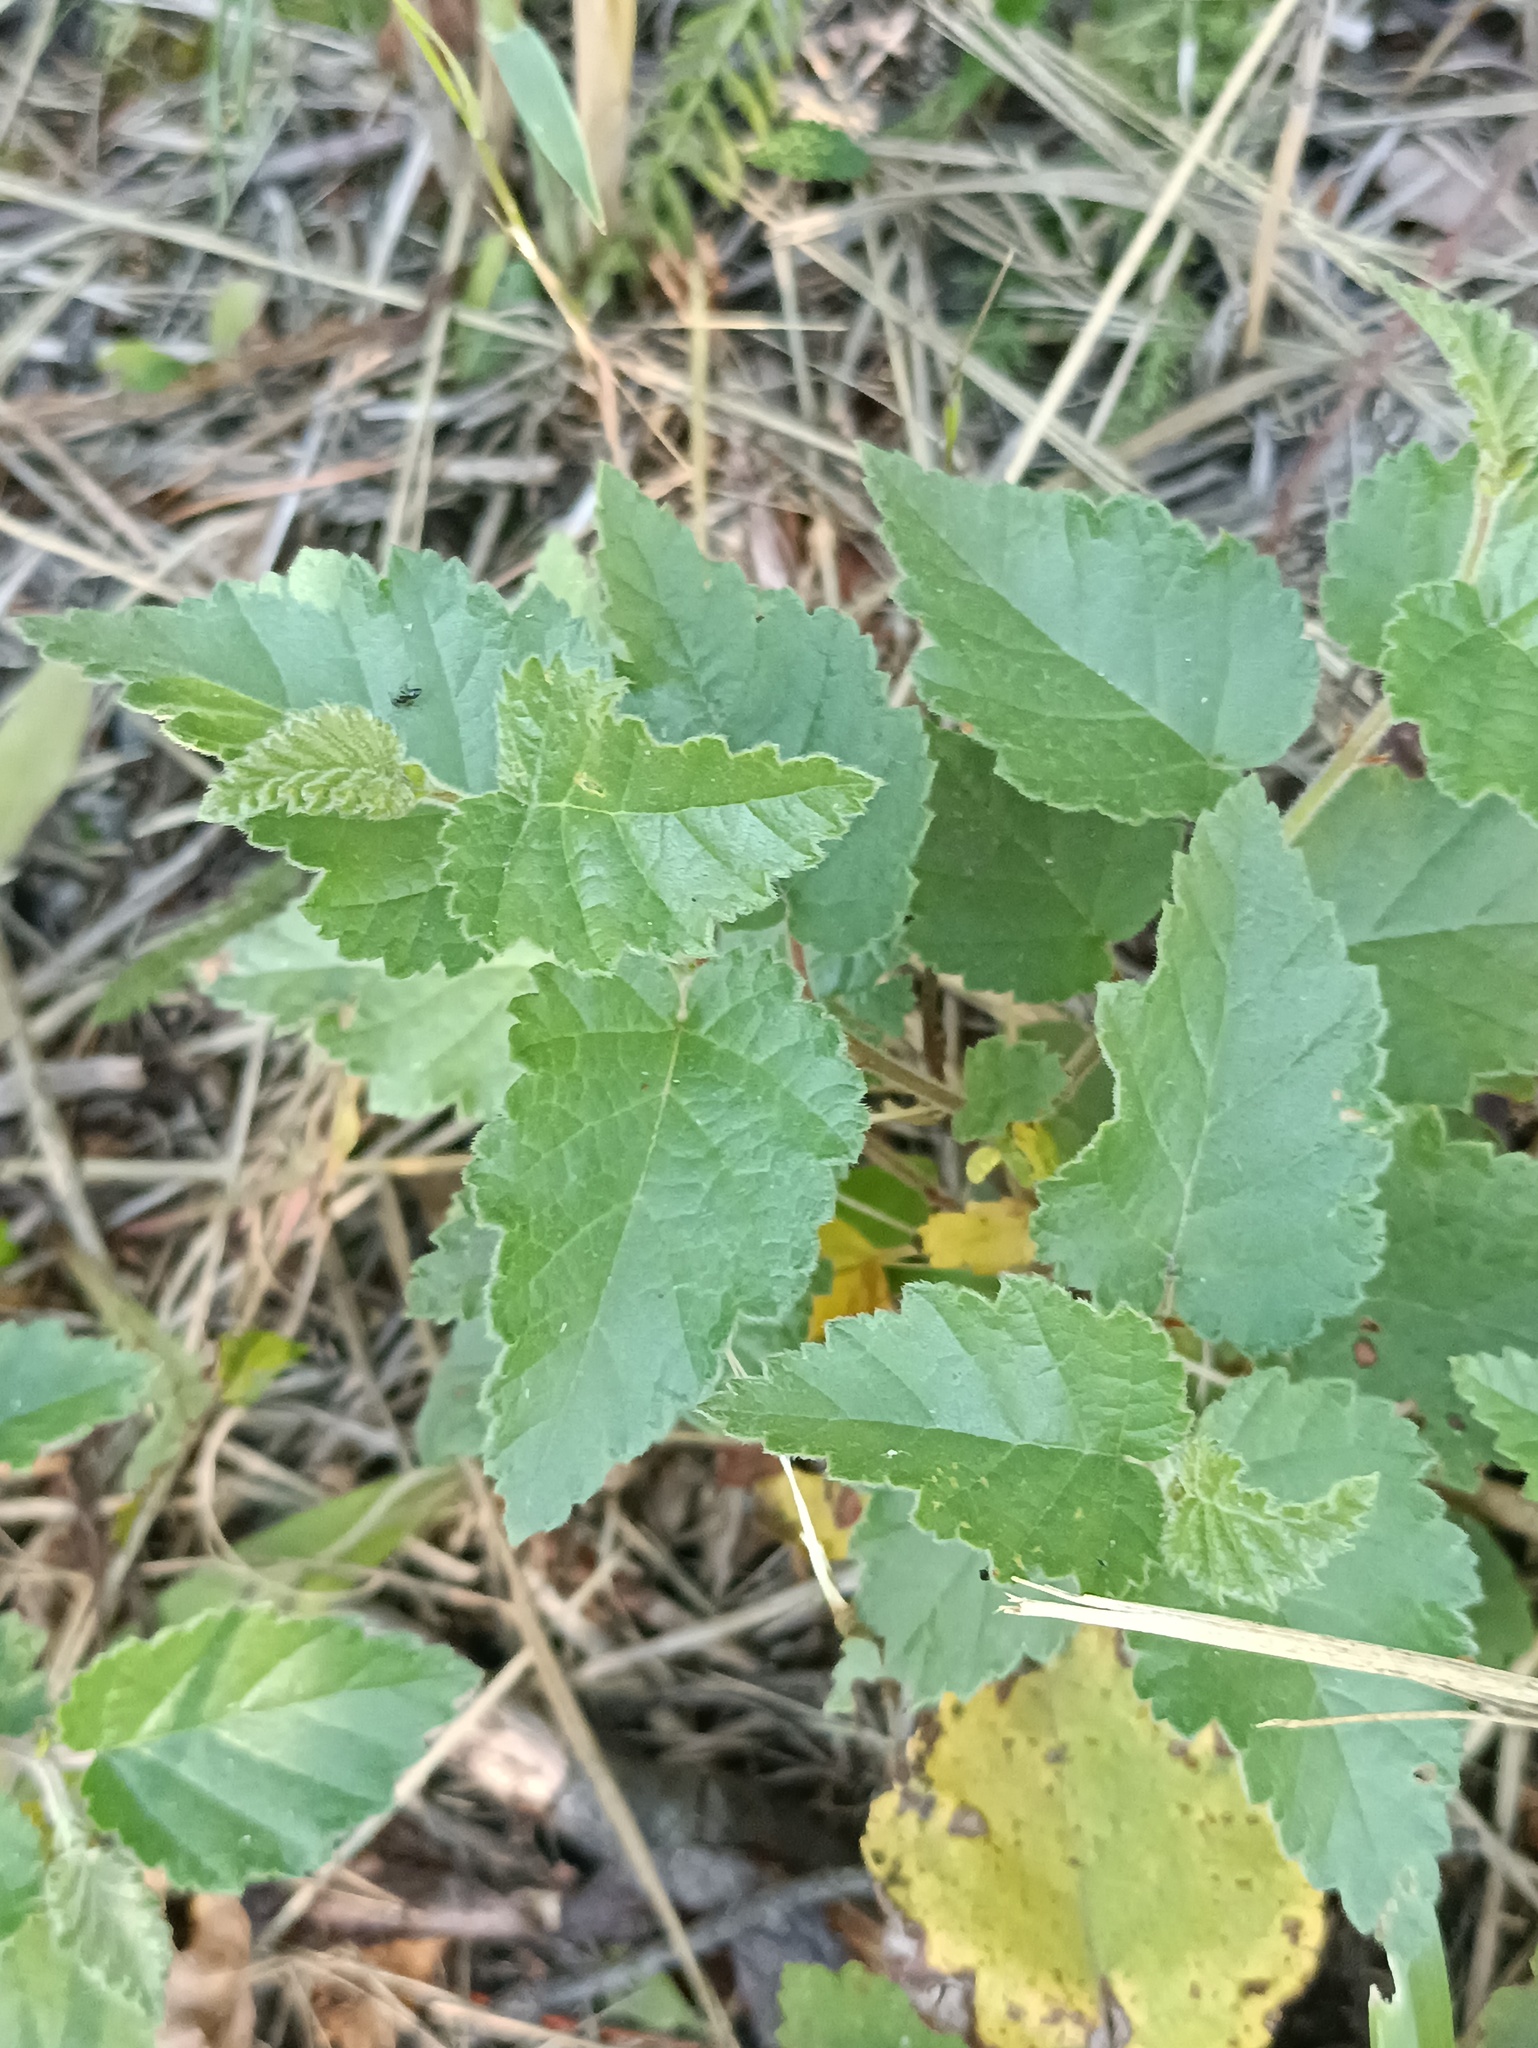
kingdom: Plantae
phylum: Tracheophyta
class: Magnoliopsida
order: Fagales
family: Betulaceae
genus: Betula
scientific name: Betula pubescens
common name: Downy birch
